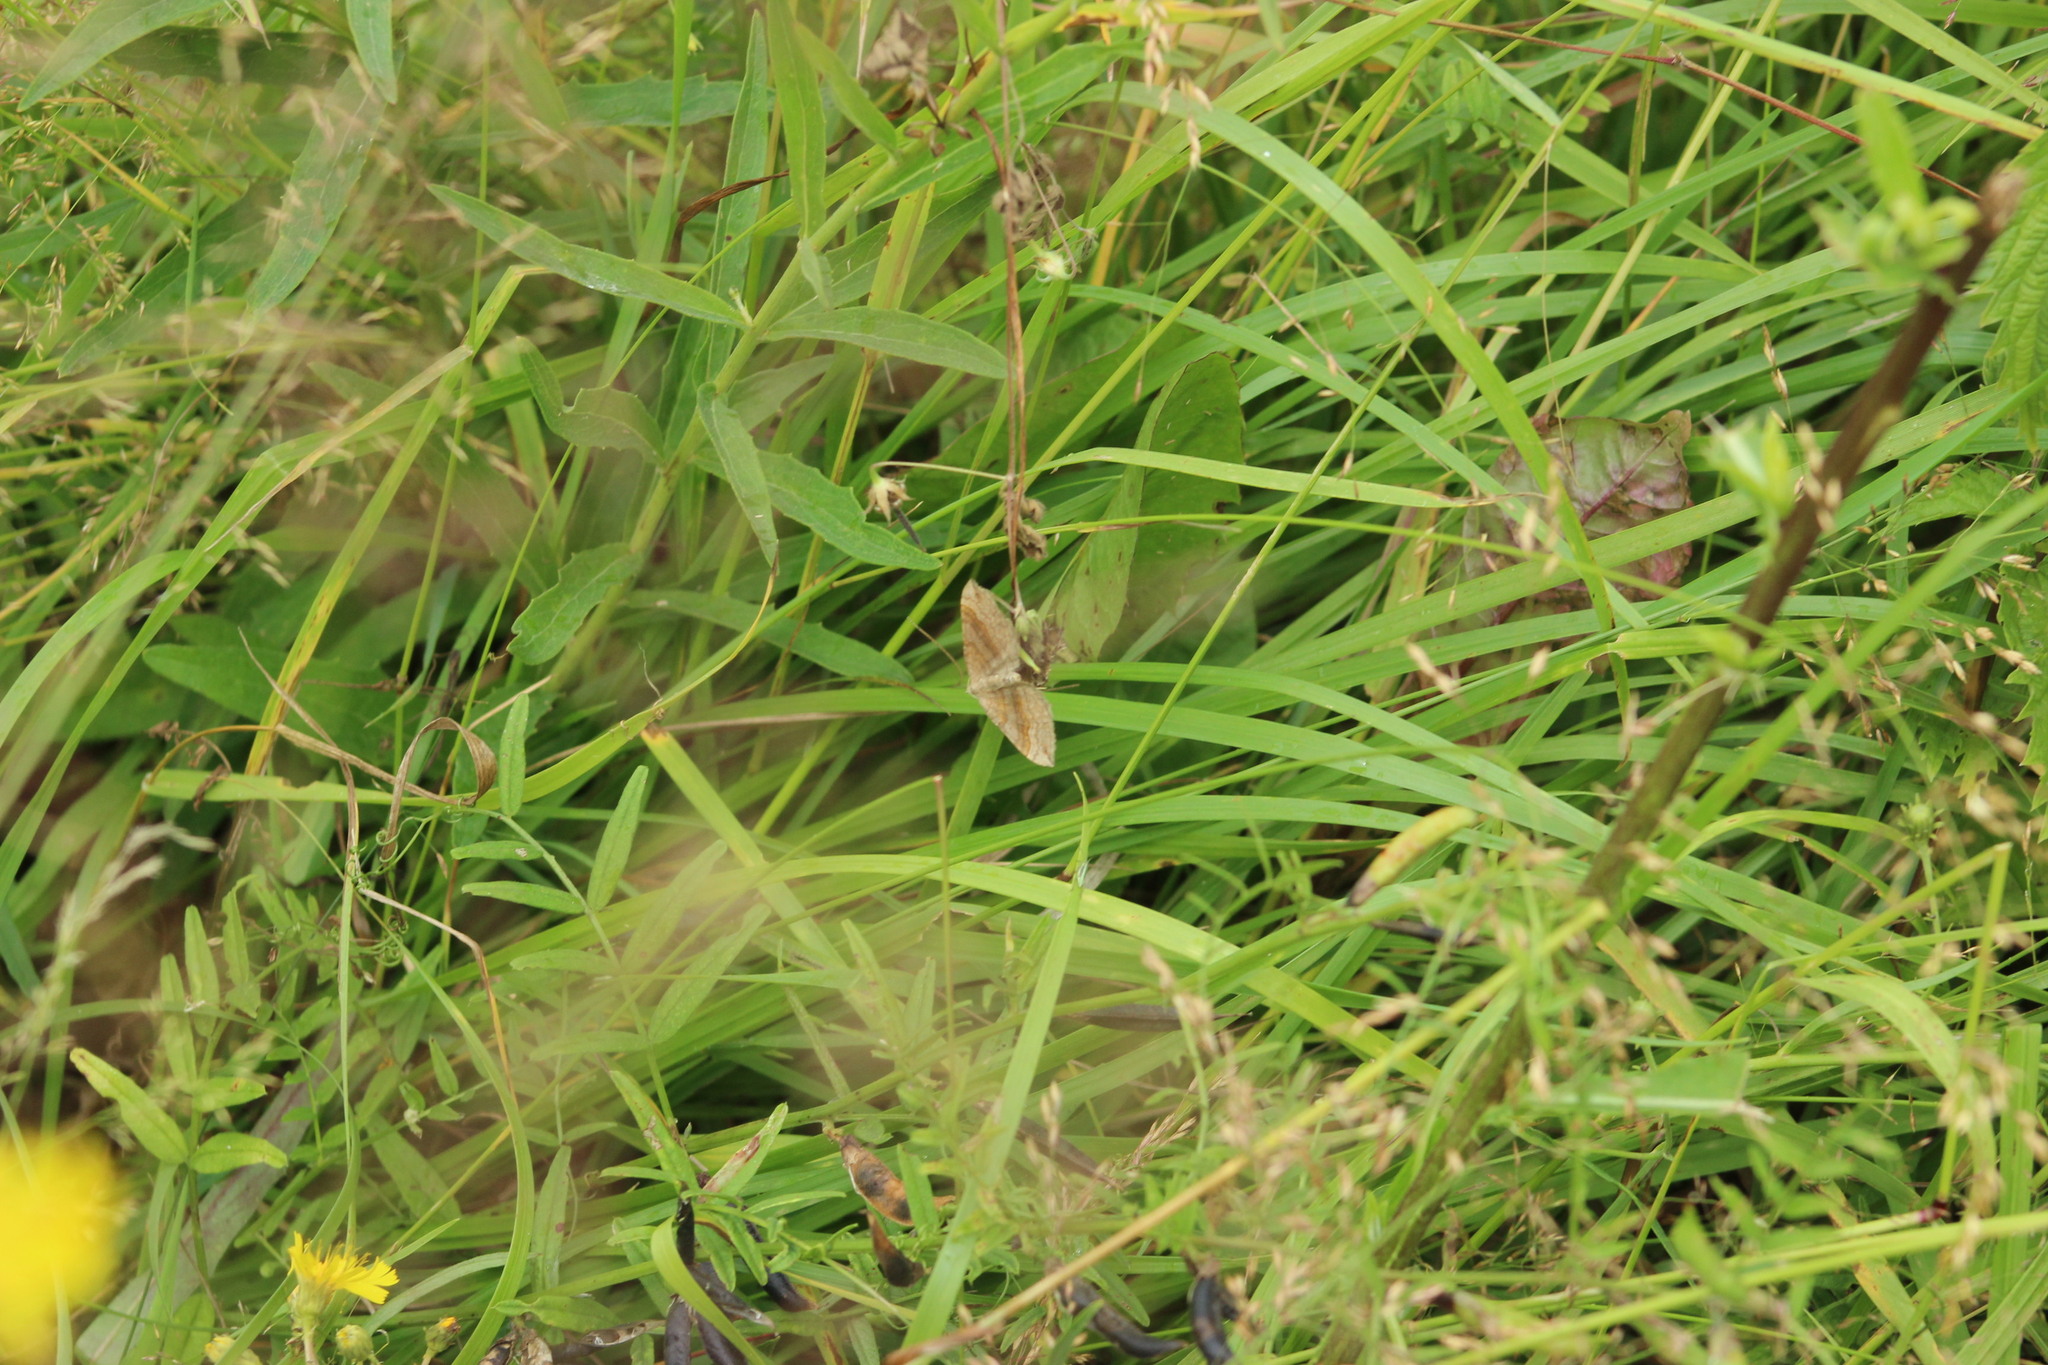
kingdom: Animalia
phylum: Arthropoda
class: Insecta
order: Lepidoptera
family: Geometridae
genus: Scotopteryx
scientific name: Scotopteryx chenopodiata
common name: Shaded broad-bar
